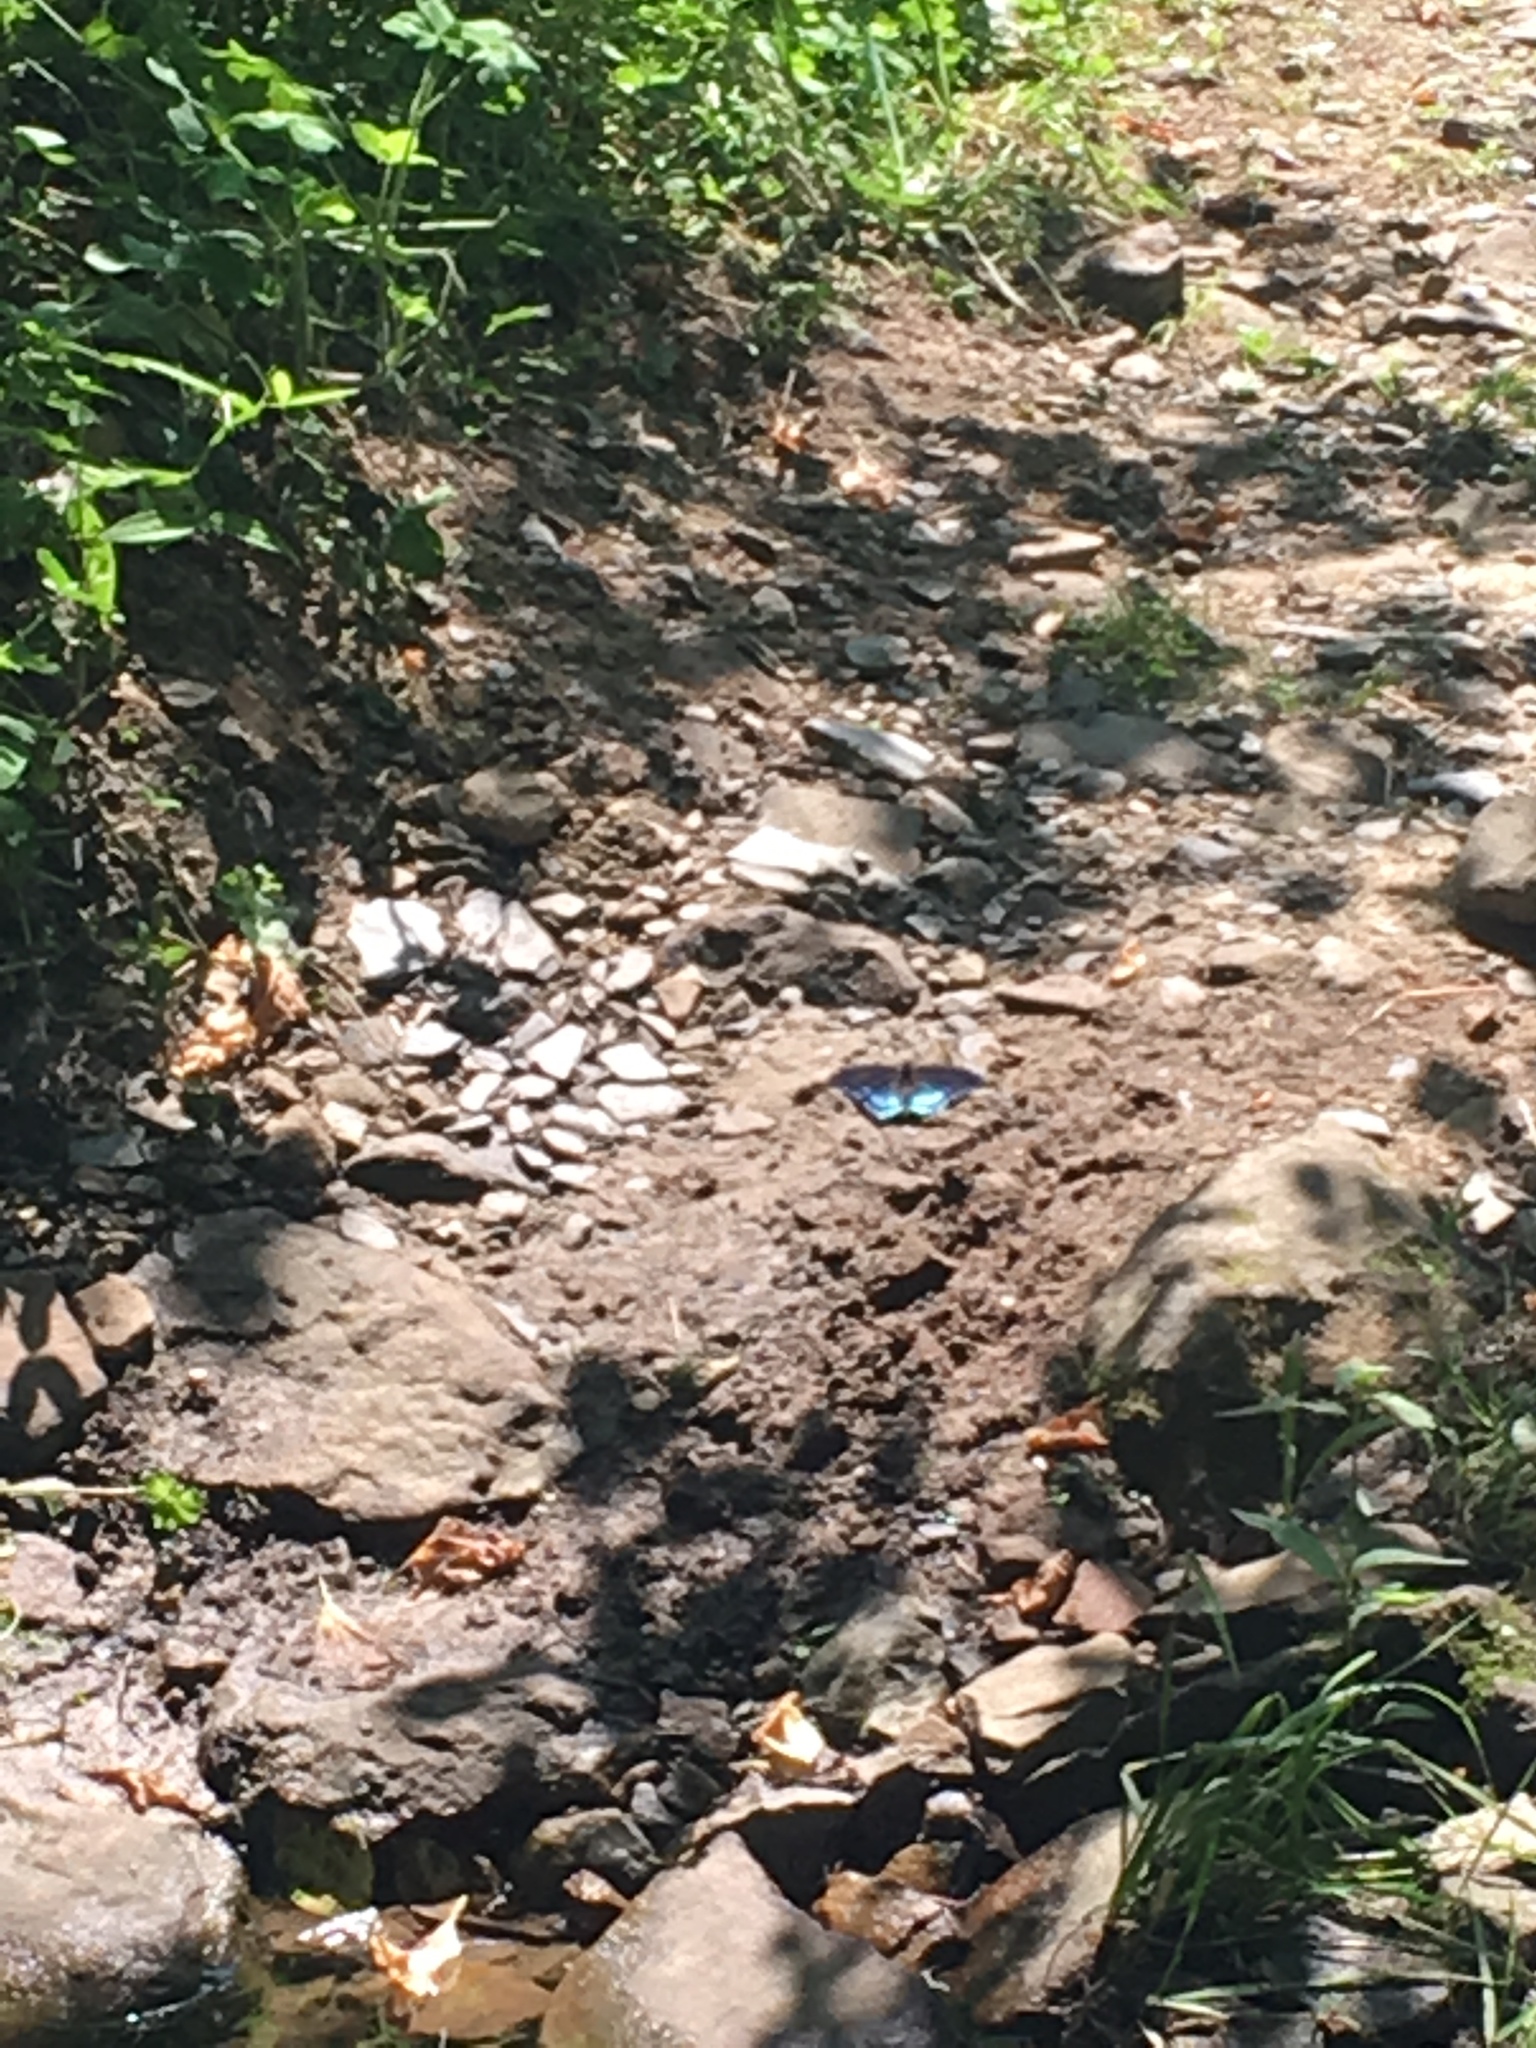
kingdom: Animalia
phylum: Arthropoda
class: Insecta
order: Lepidoptera
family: Nymphalidae
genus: Limenitis
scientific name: Limenitis astyanax
